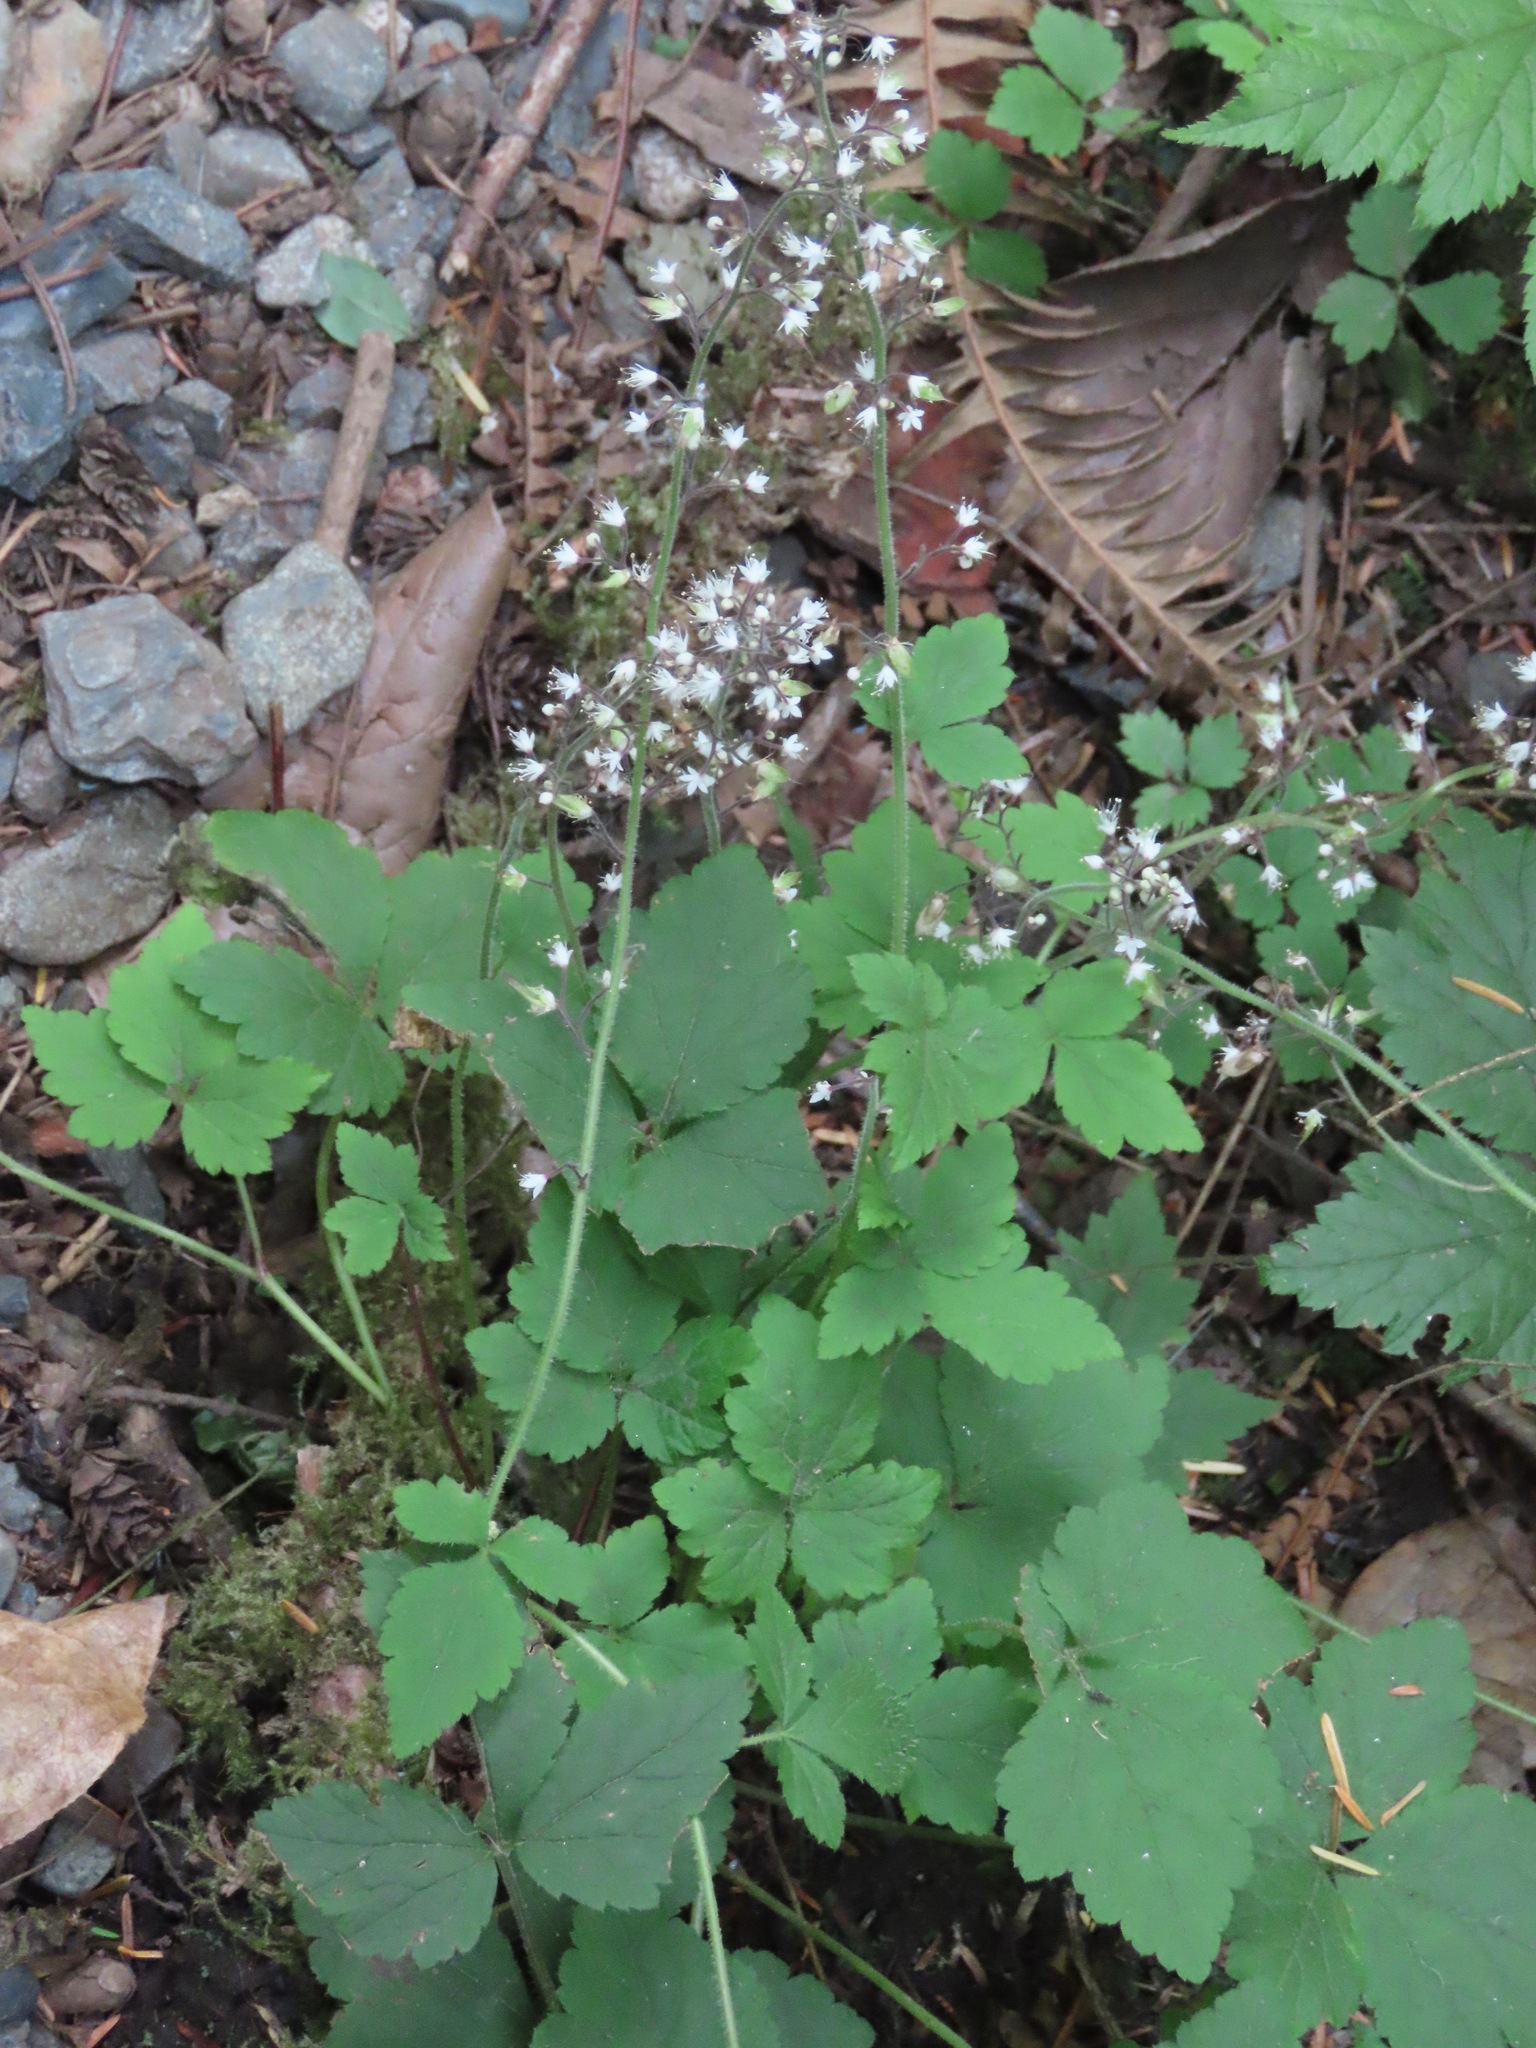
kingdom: Plantae
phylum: Tracheophyta
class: Magnoliopsida
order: Saxifragales
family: Saxifragaceae
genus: Tiarella
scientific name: Tiarella trifoliata
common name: Sugar-scoop
